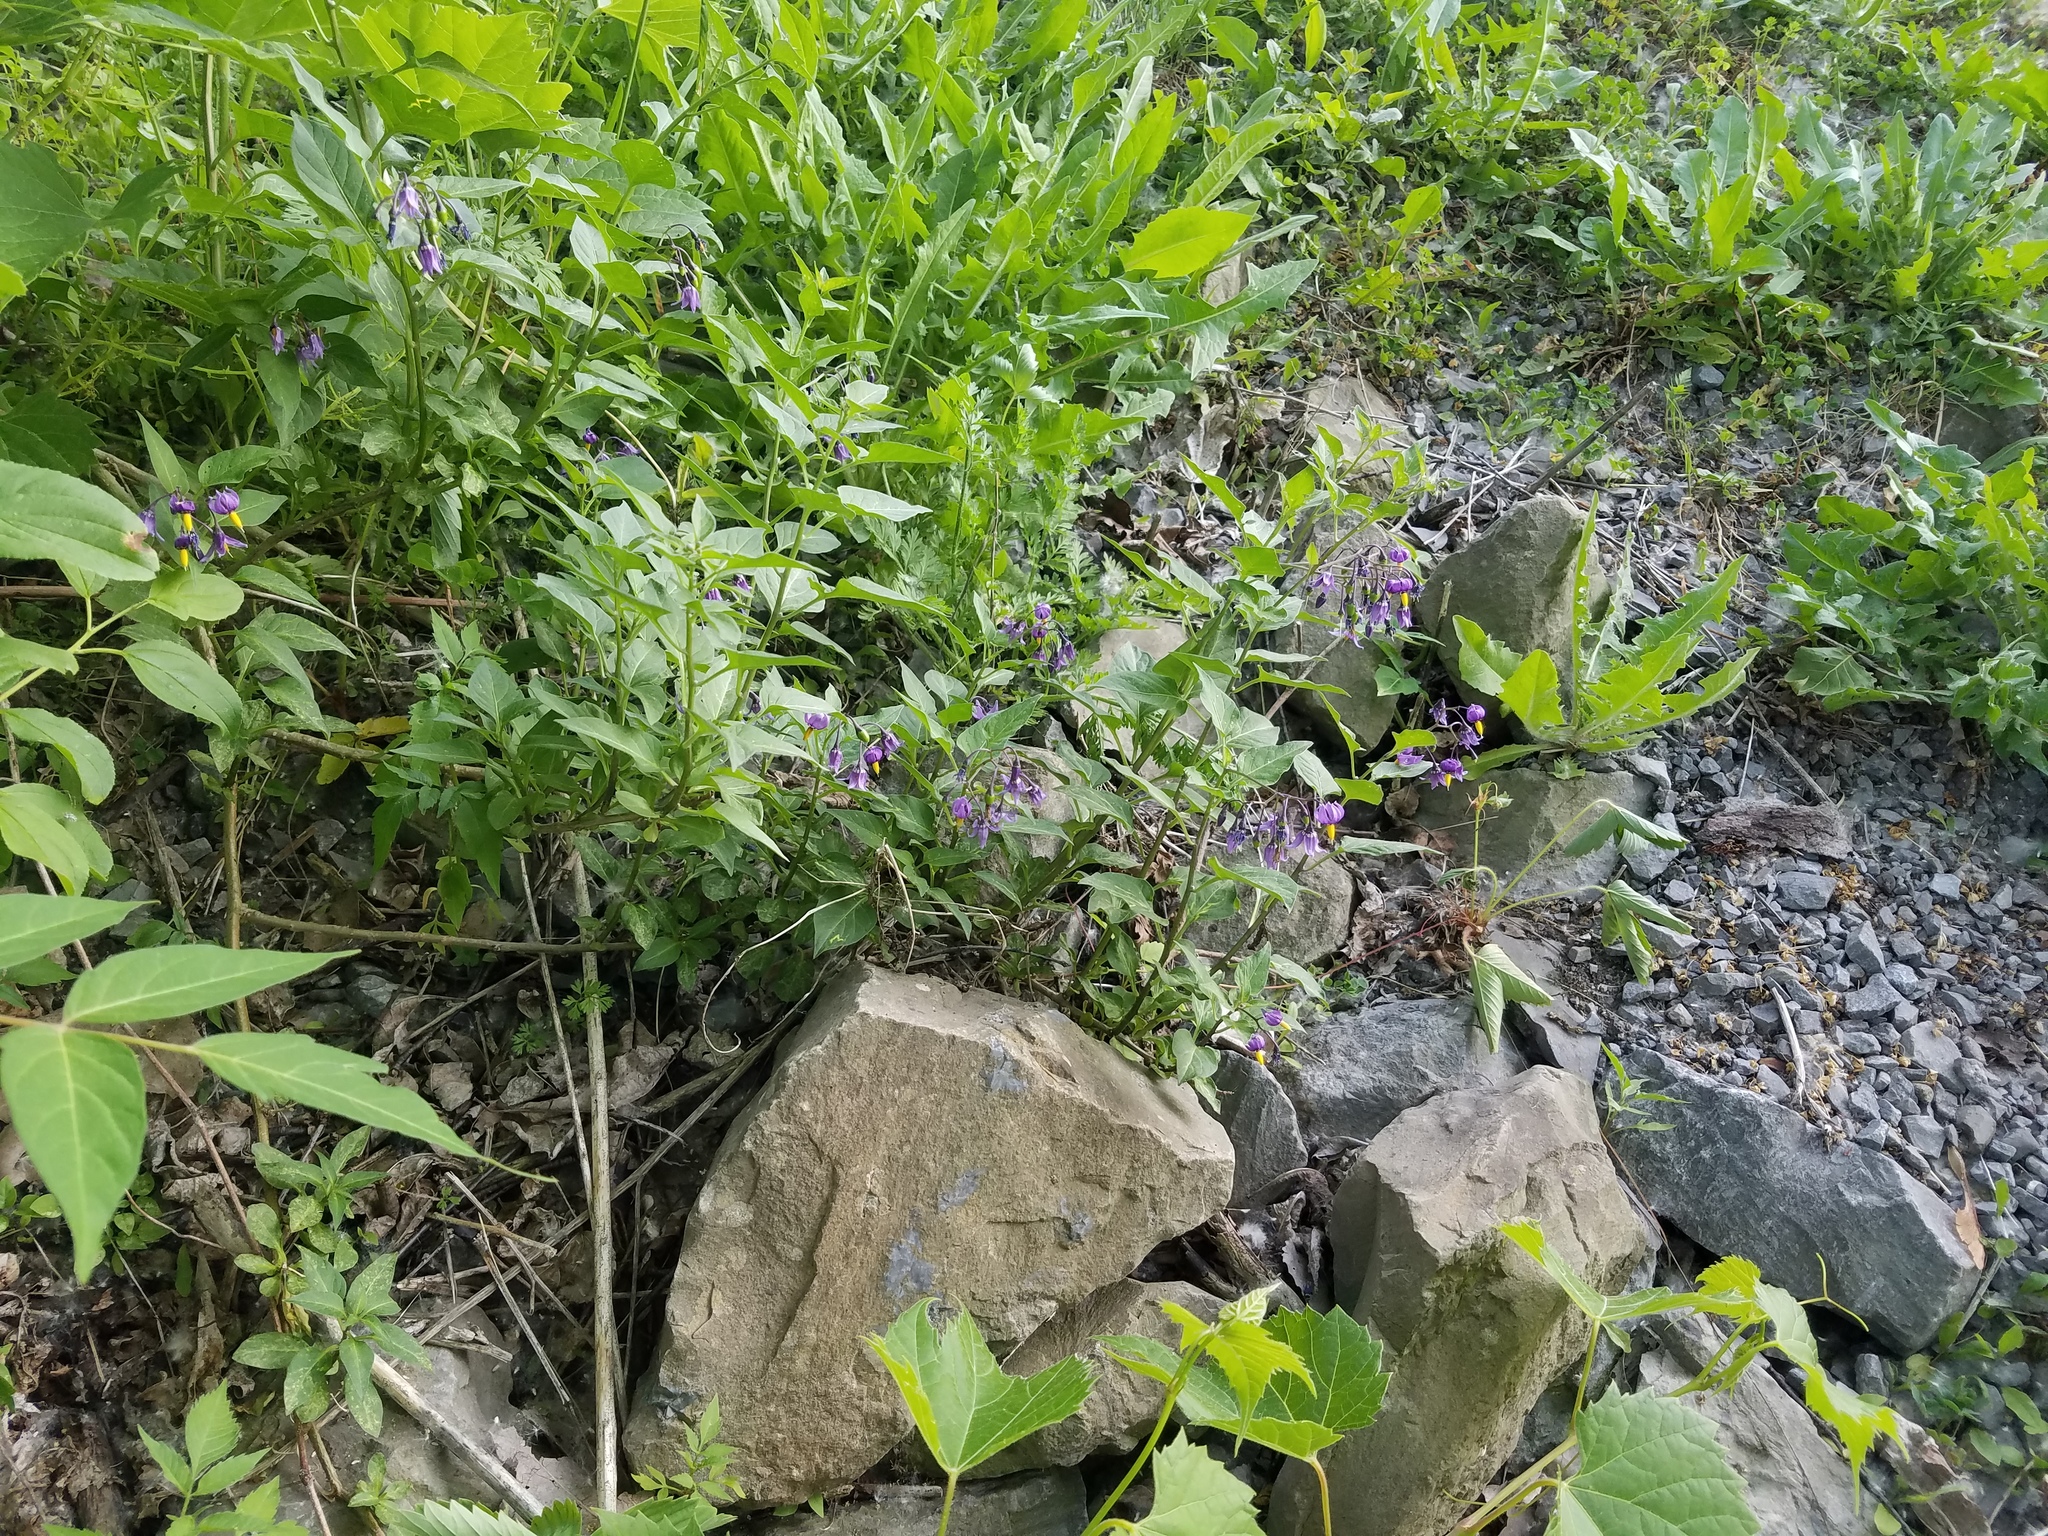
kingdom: Plantae
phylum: Tracheophyta
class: Magnoliopsida
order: Solanales
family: Solanaceae
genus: Solanum
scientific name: Solanum dulcamara
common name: Climbing nightshade
